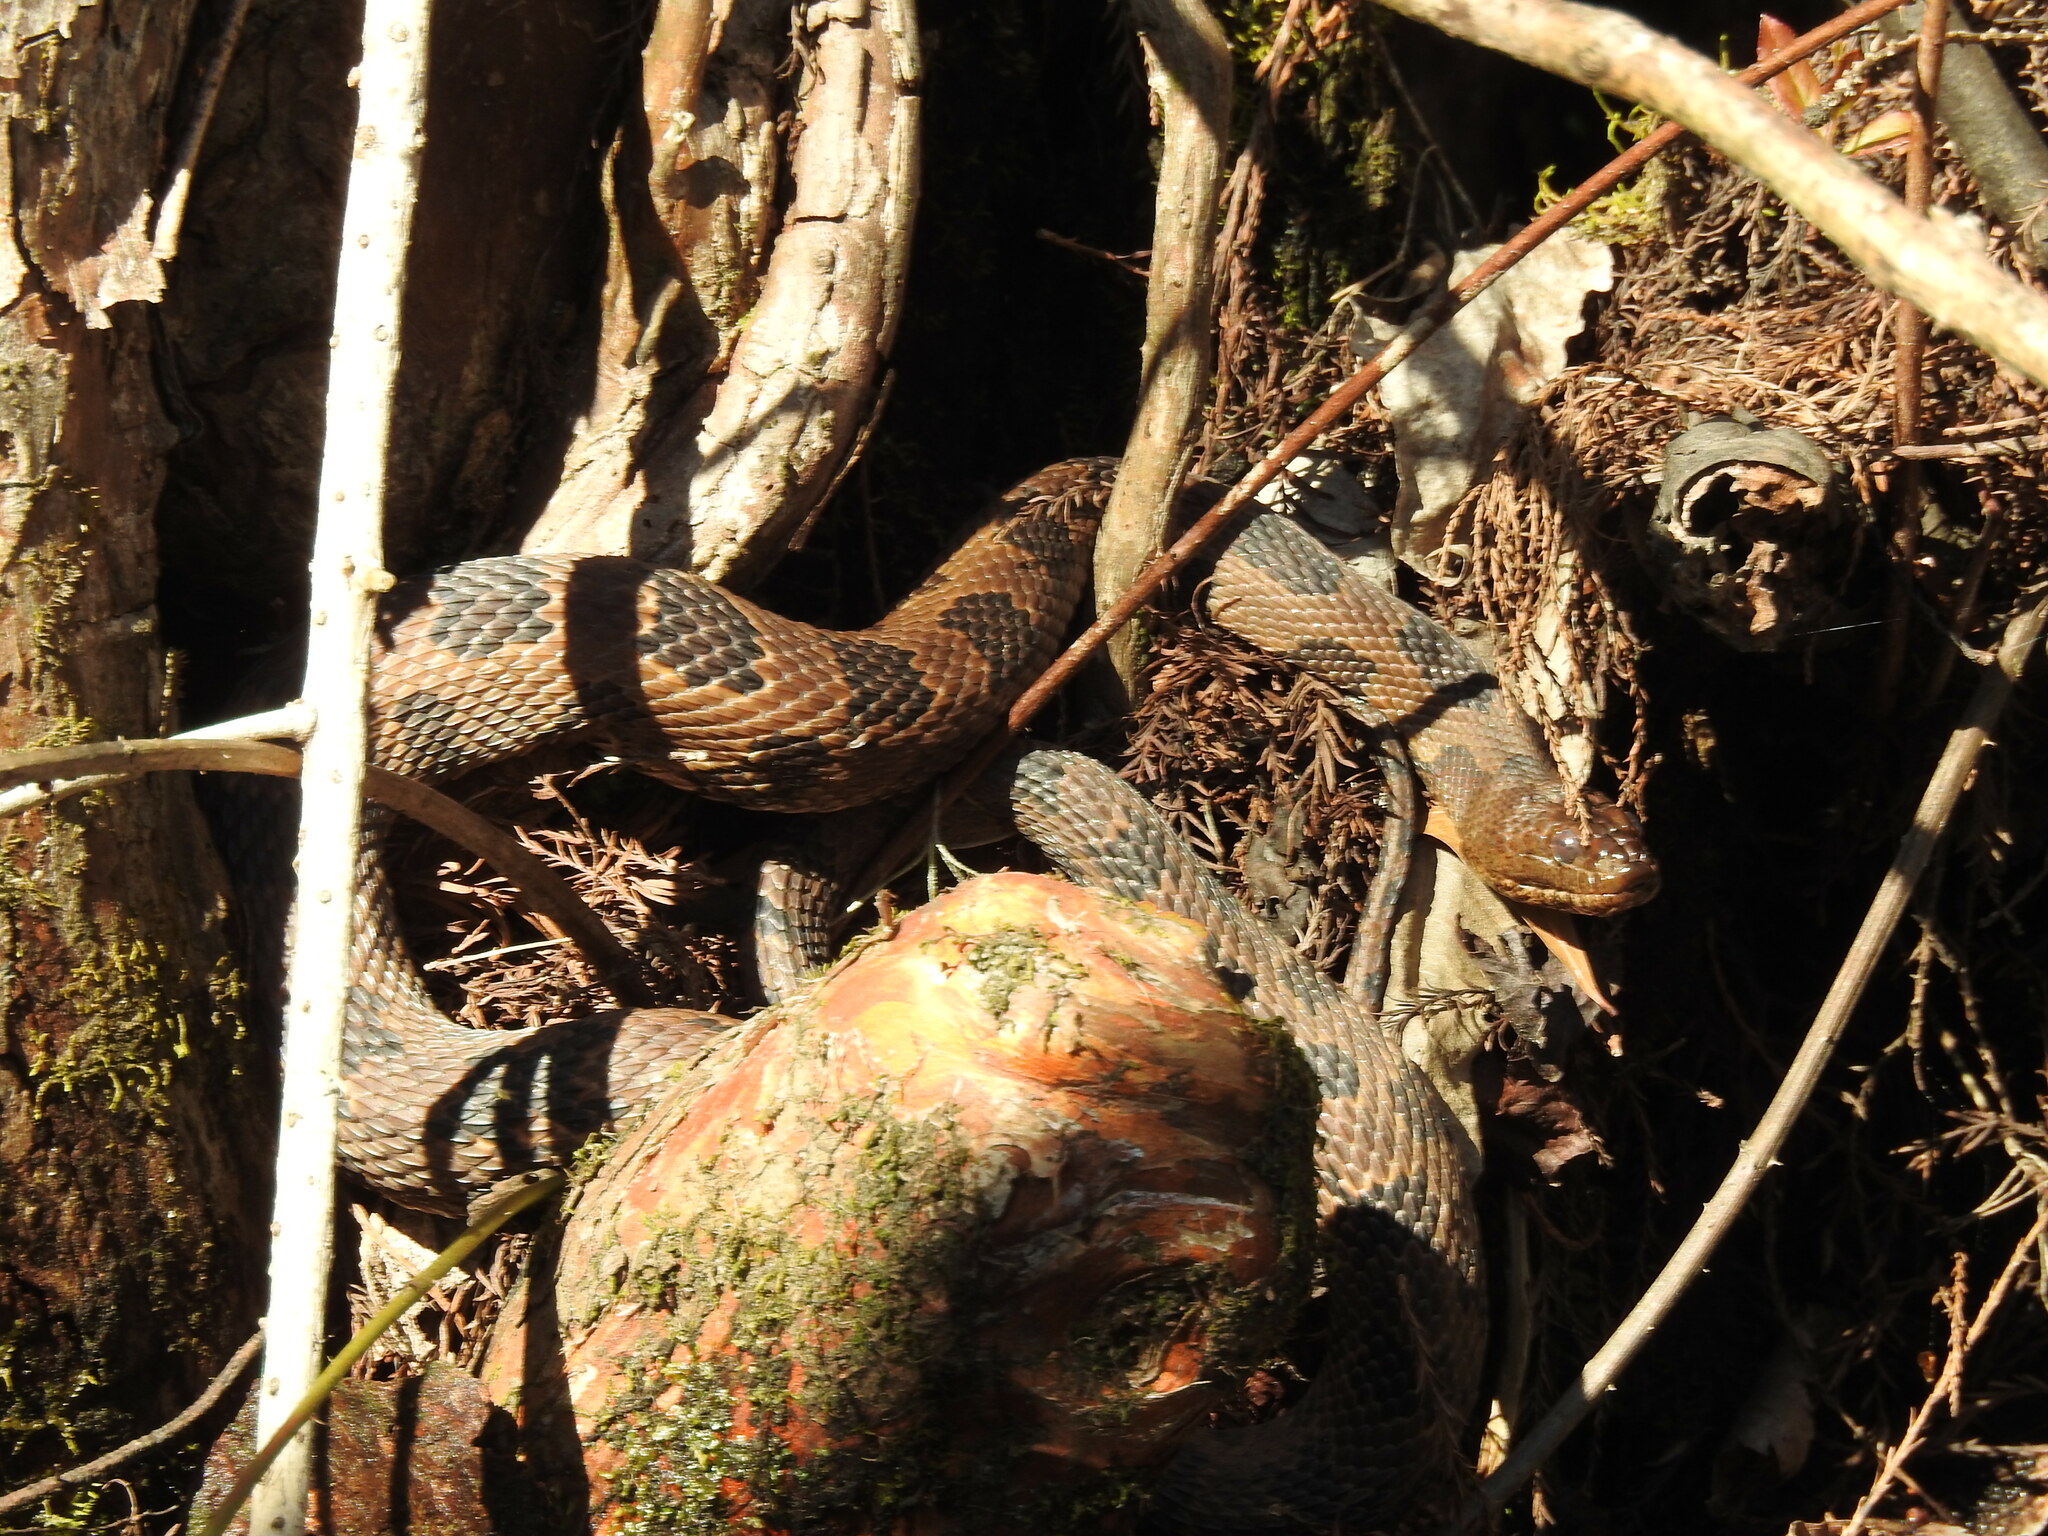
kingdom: Animalia
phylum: Chordata
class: Squamata
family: Colubridae
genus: Nerodia
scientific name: Nerodia taxispilota
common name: Brown water snake
